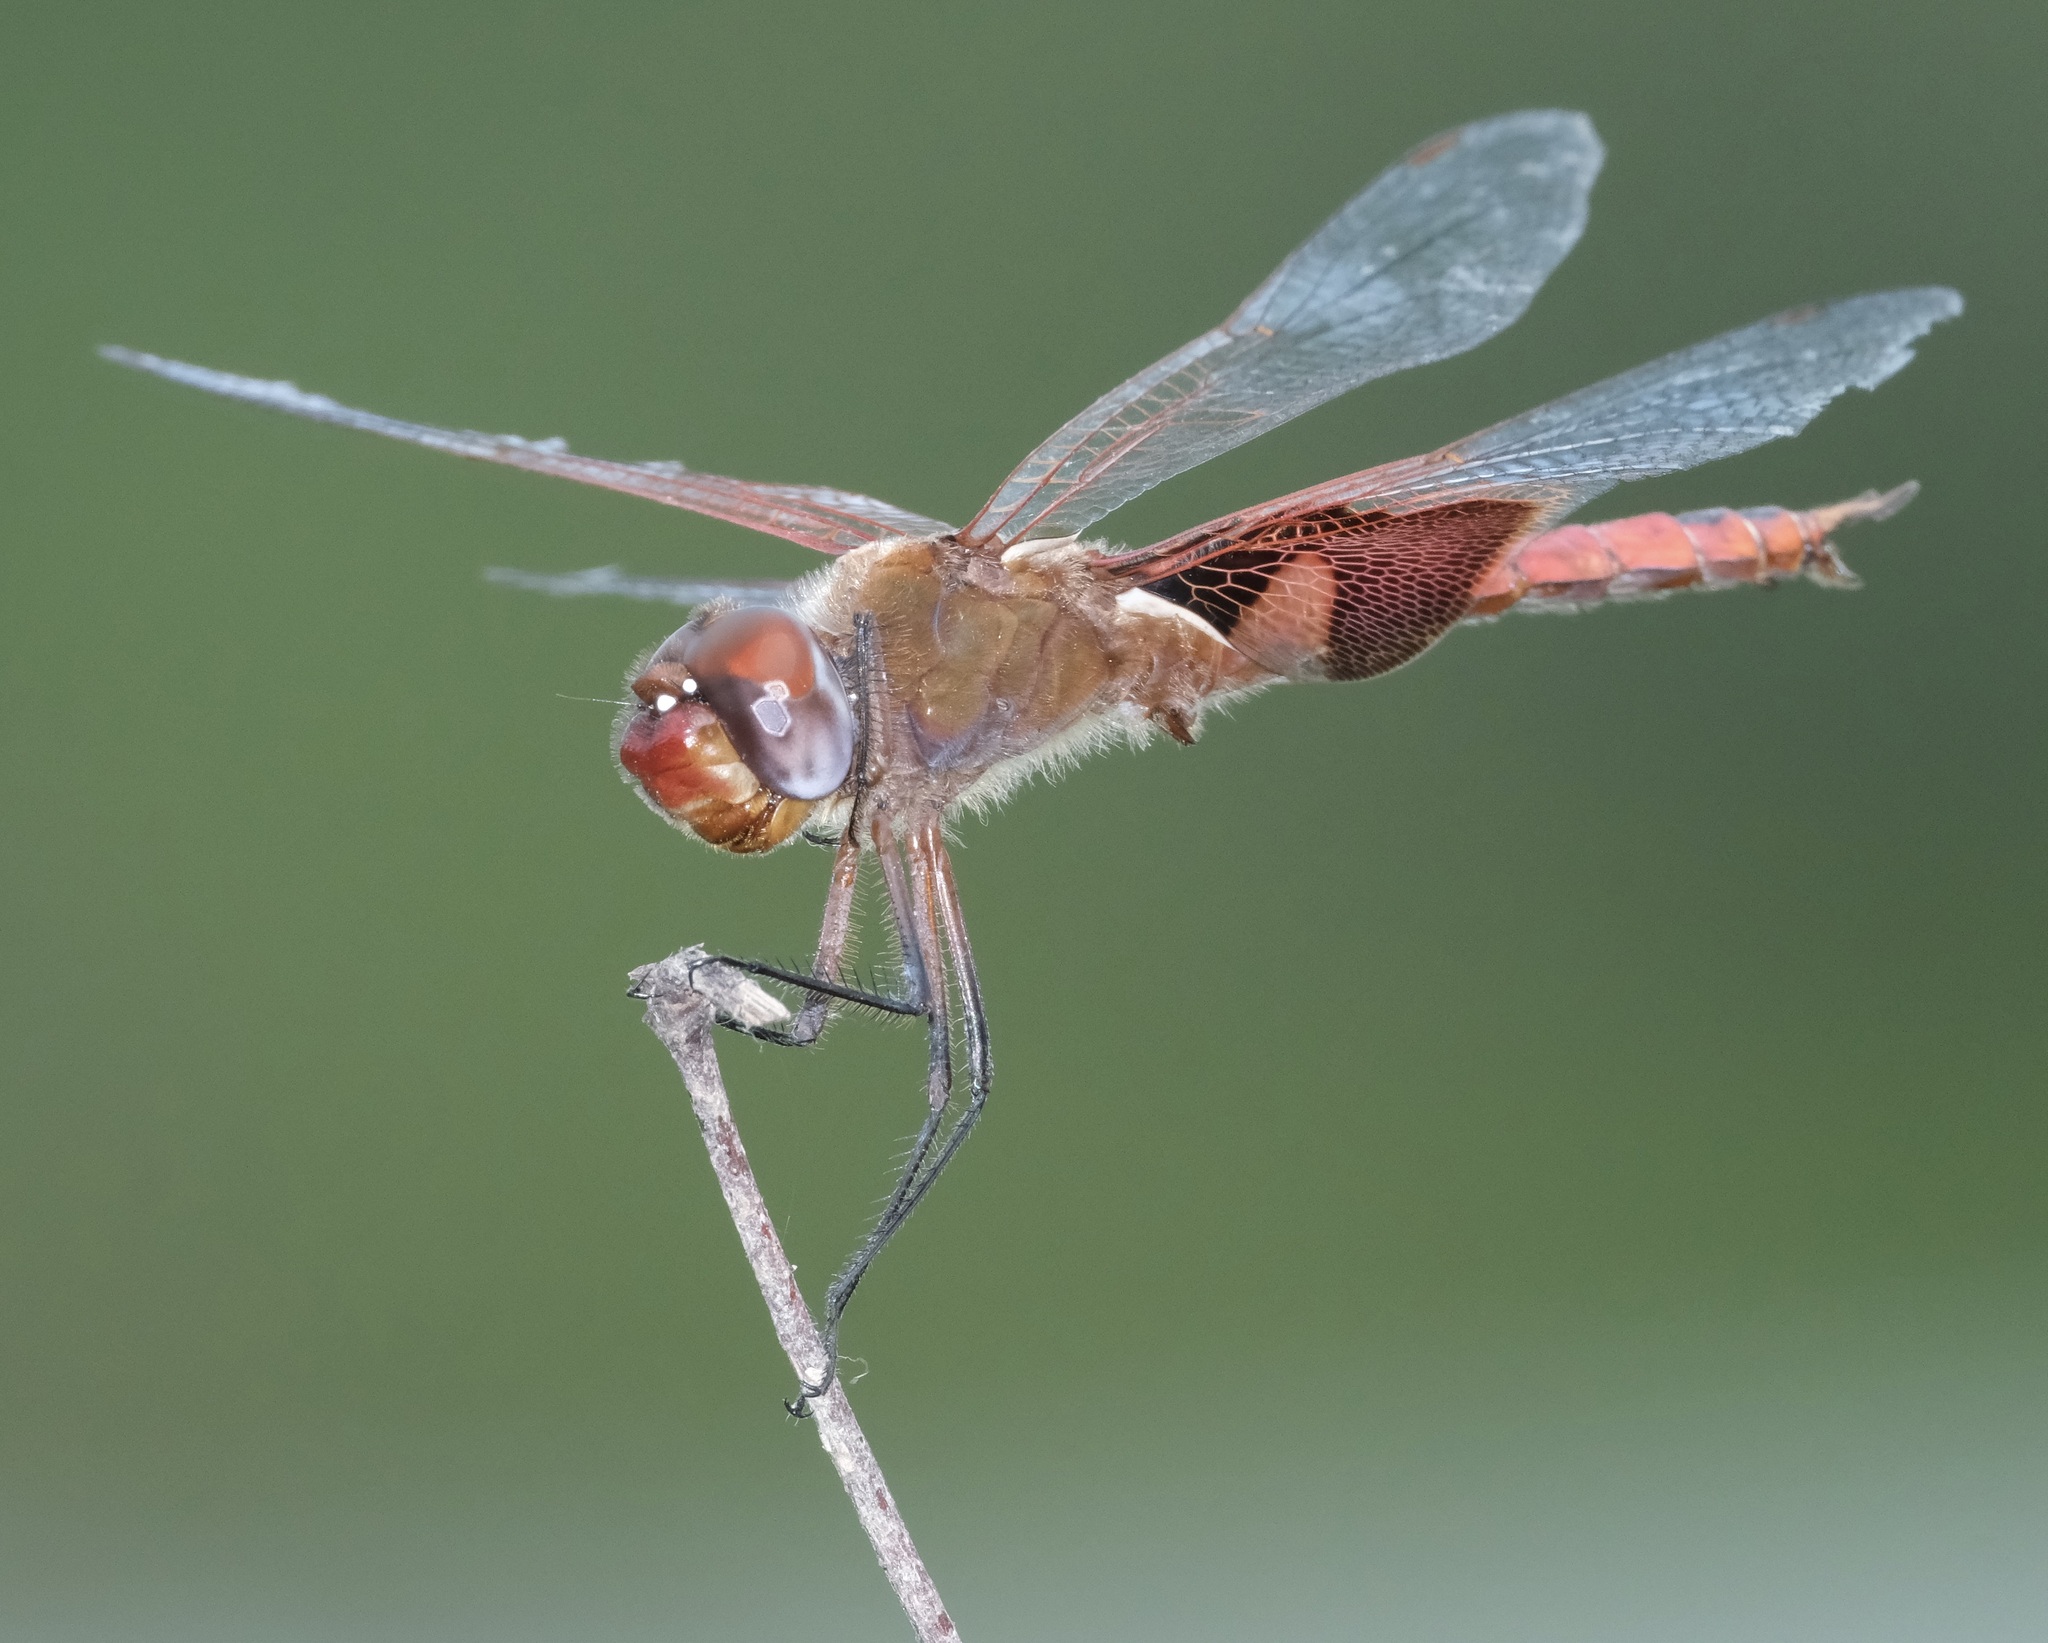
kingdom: Animalia
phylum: Arthropoda
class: Insecta
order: Odonata
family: Libellulidae
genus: Tramea
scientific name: Tramea onusta
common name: Red saddlebags
